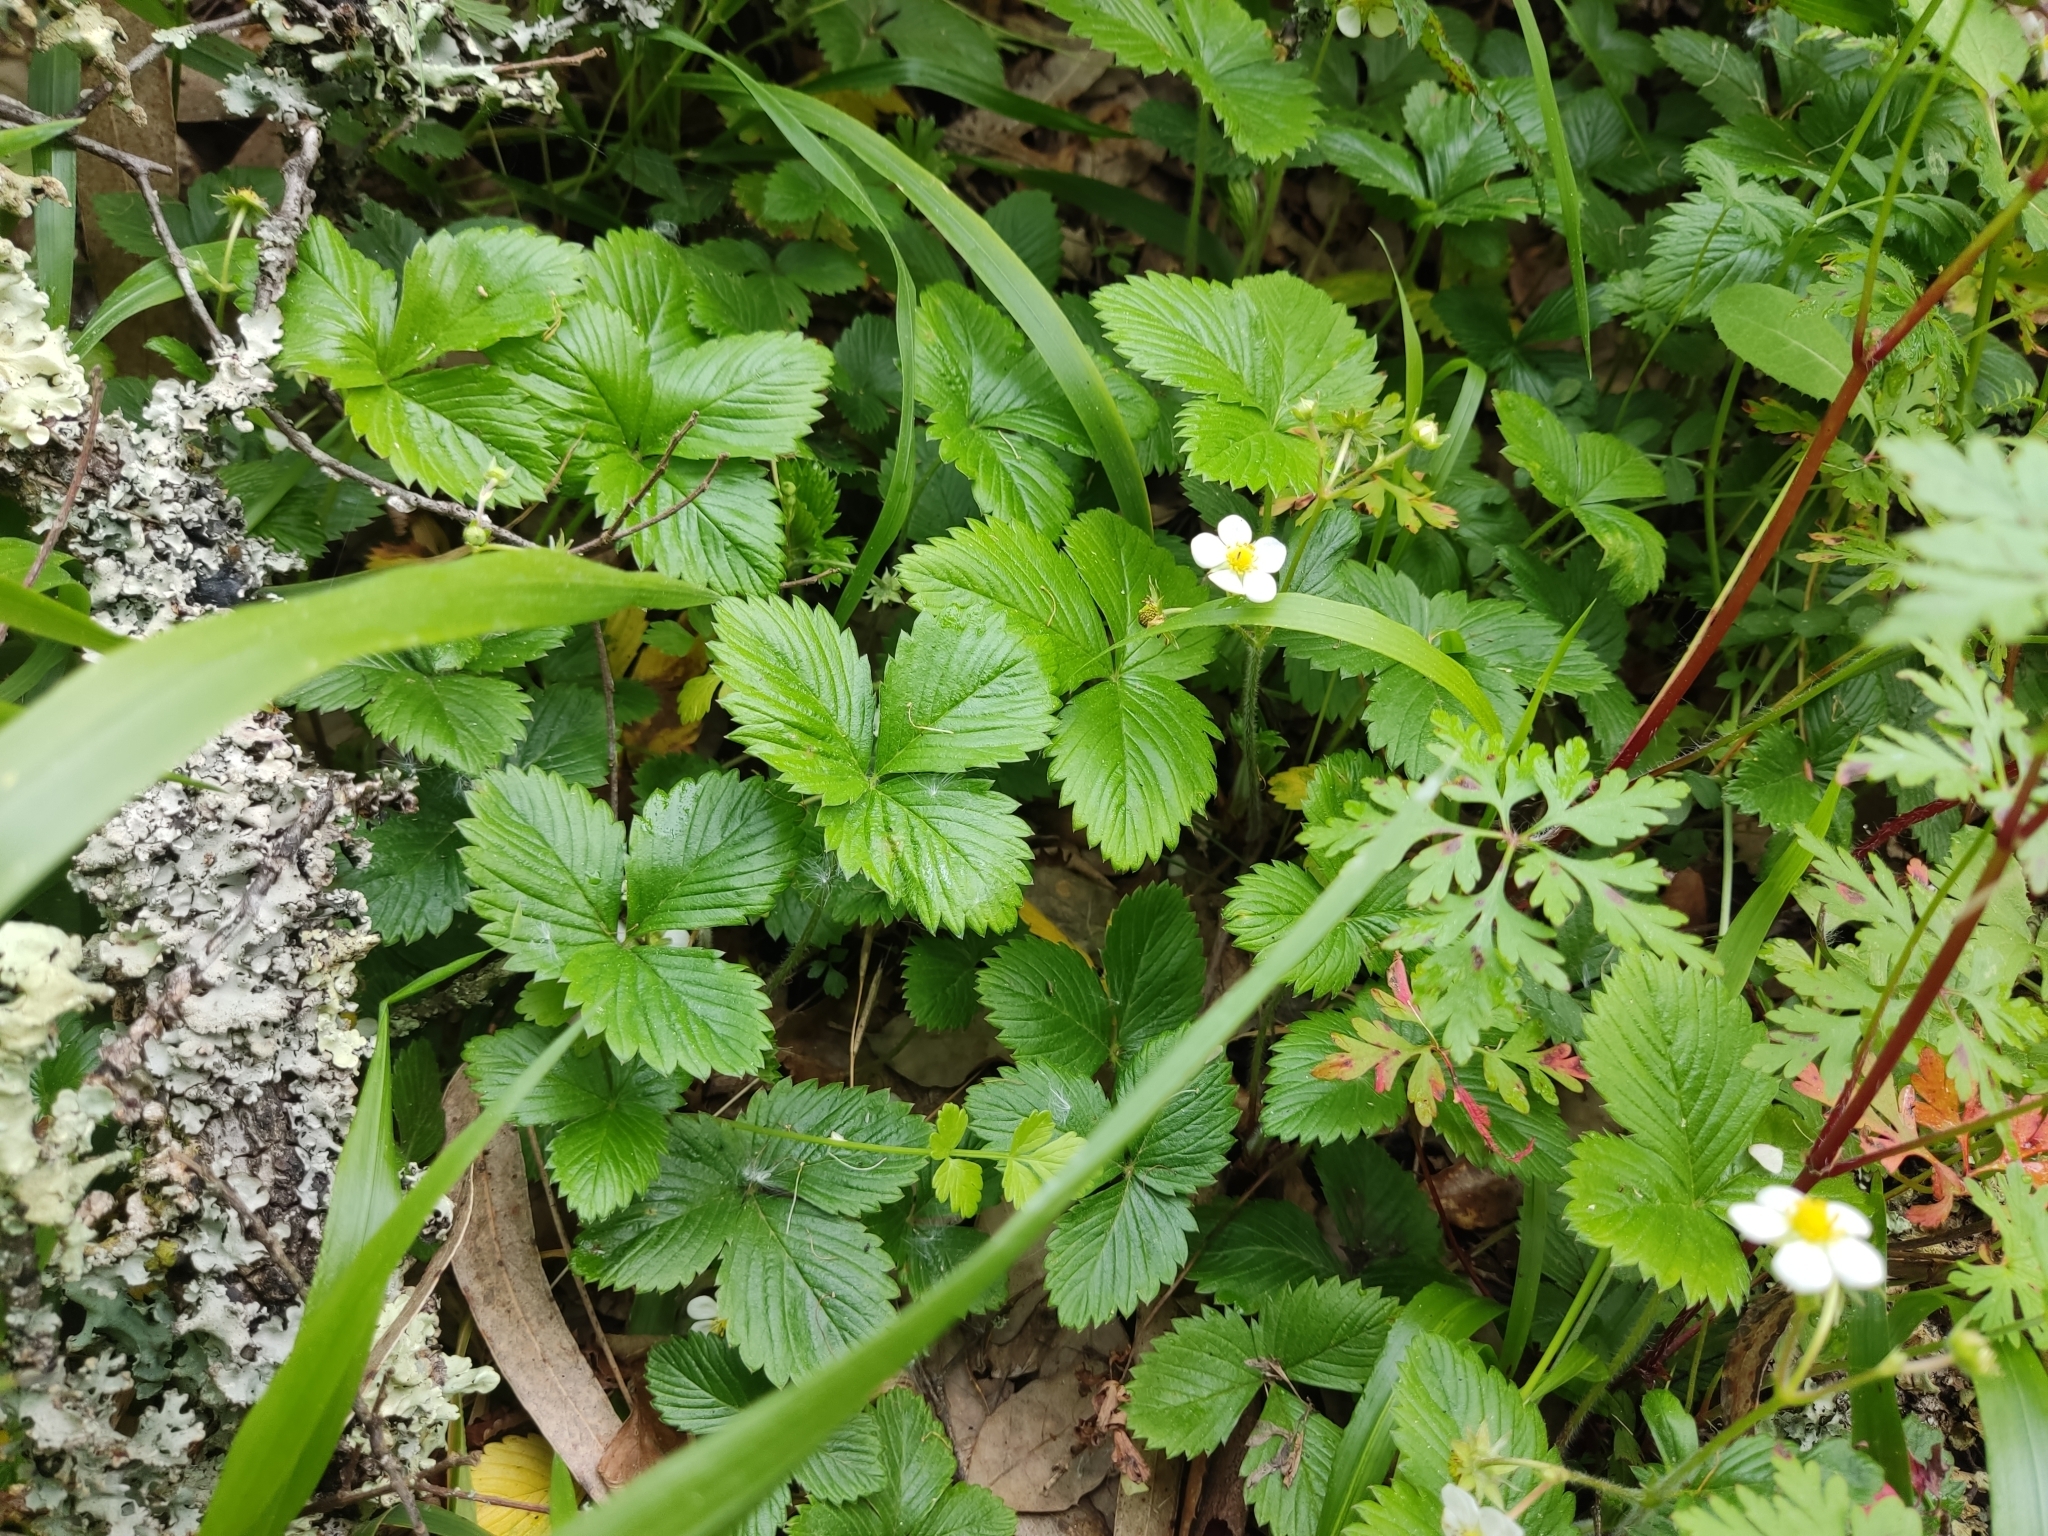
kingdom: Plantae
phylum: Tracheophyta
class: Magnoliopsida
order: Rosales
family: Rosaceae
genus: Fragaria
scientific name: Fragaria vesca
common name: Wild strawberry
